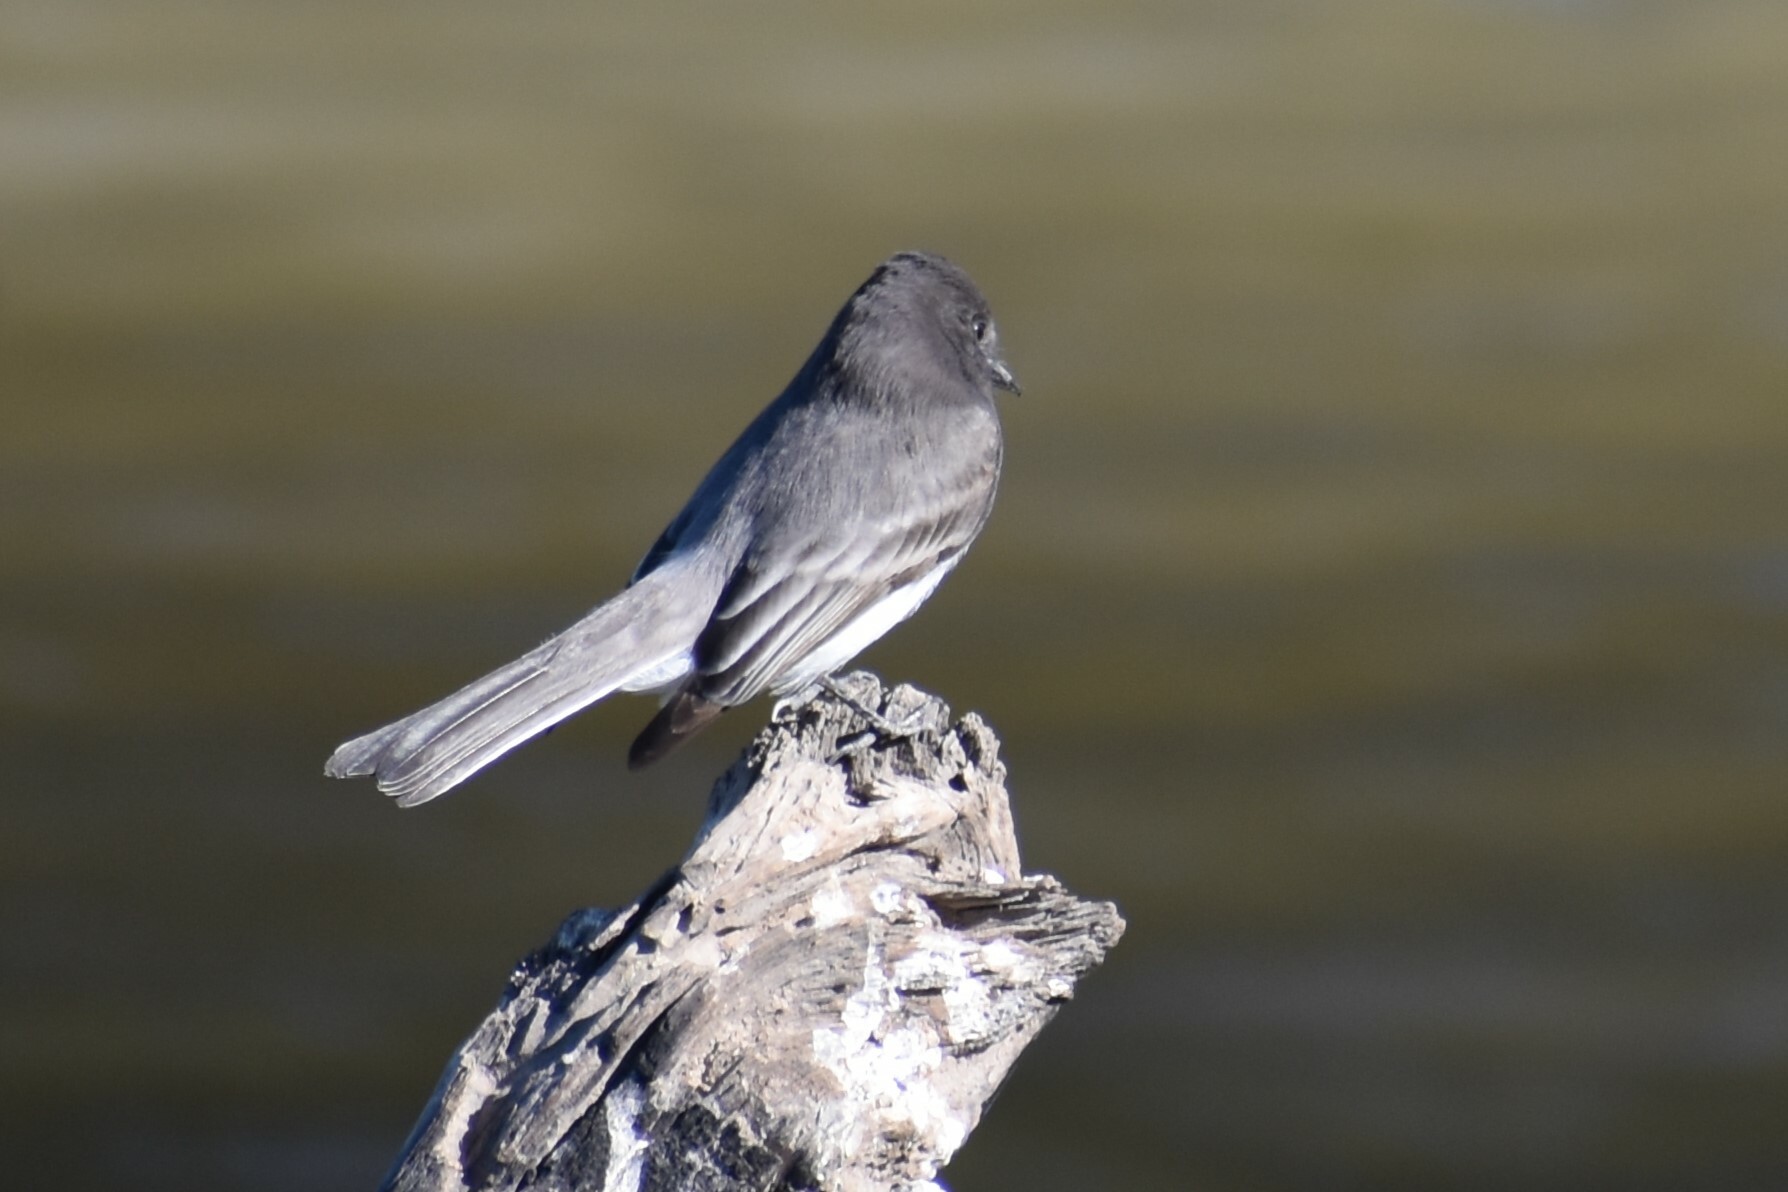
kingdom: Animalia
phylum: Chordata
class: Aves
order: Passeriformes
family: Tyrannidae
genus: Sayornis
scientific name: Sayornis nigricans
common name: Black phoebe
